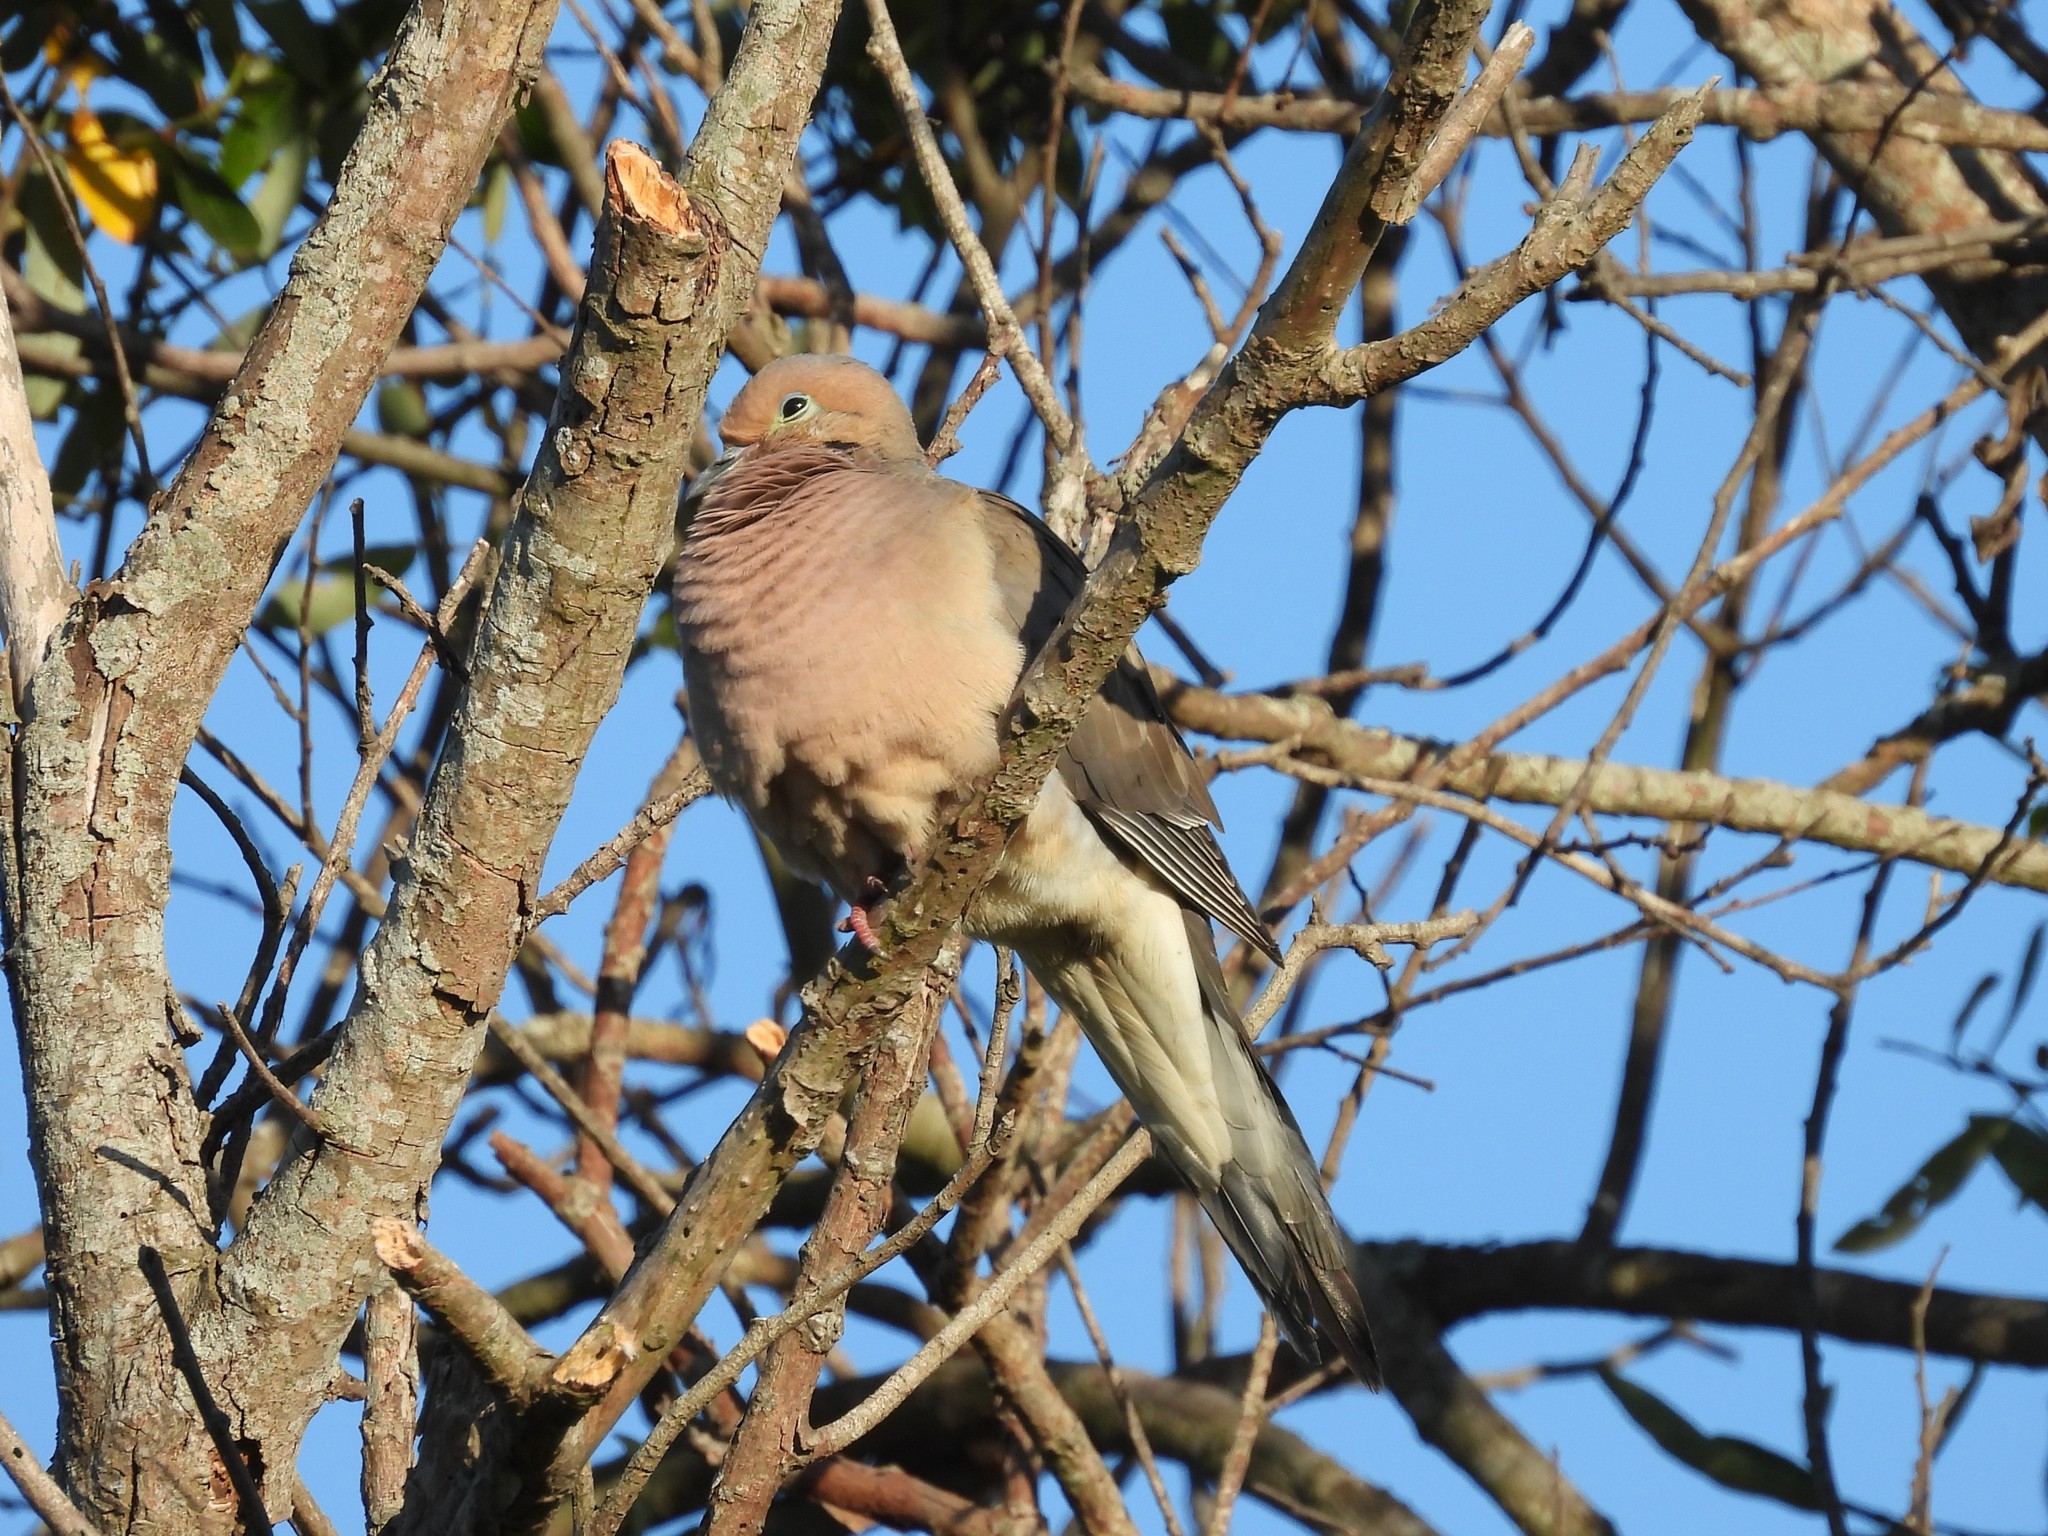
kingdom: Animalia
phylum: Chordata
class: Aves
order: Columbiformes
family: Columbidae
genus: Zenaida
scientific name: Zenaida macroura
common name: Mourning dove
